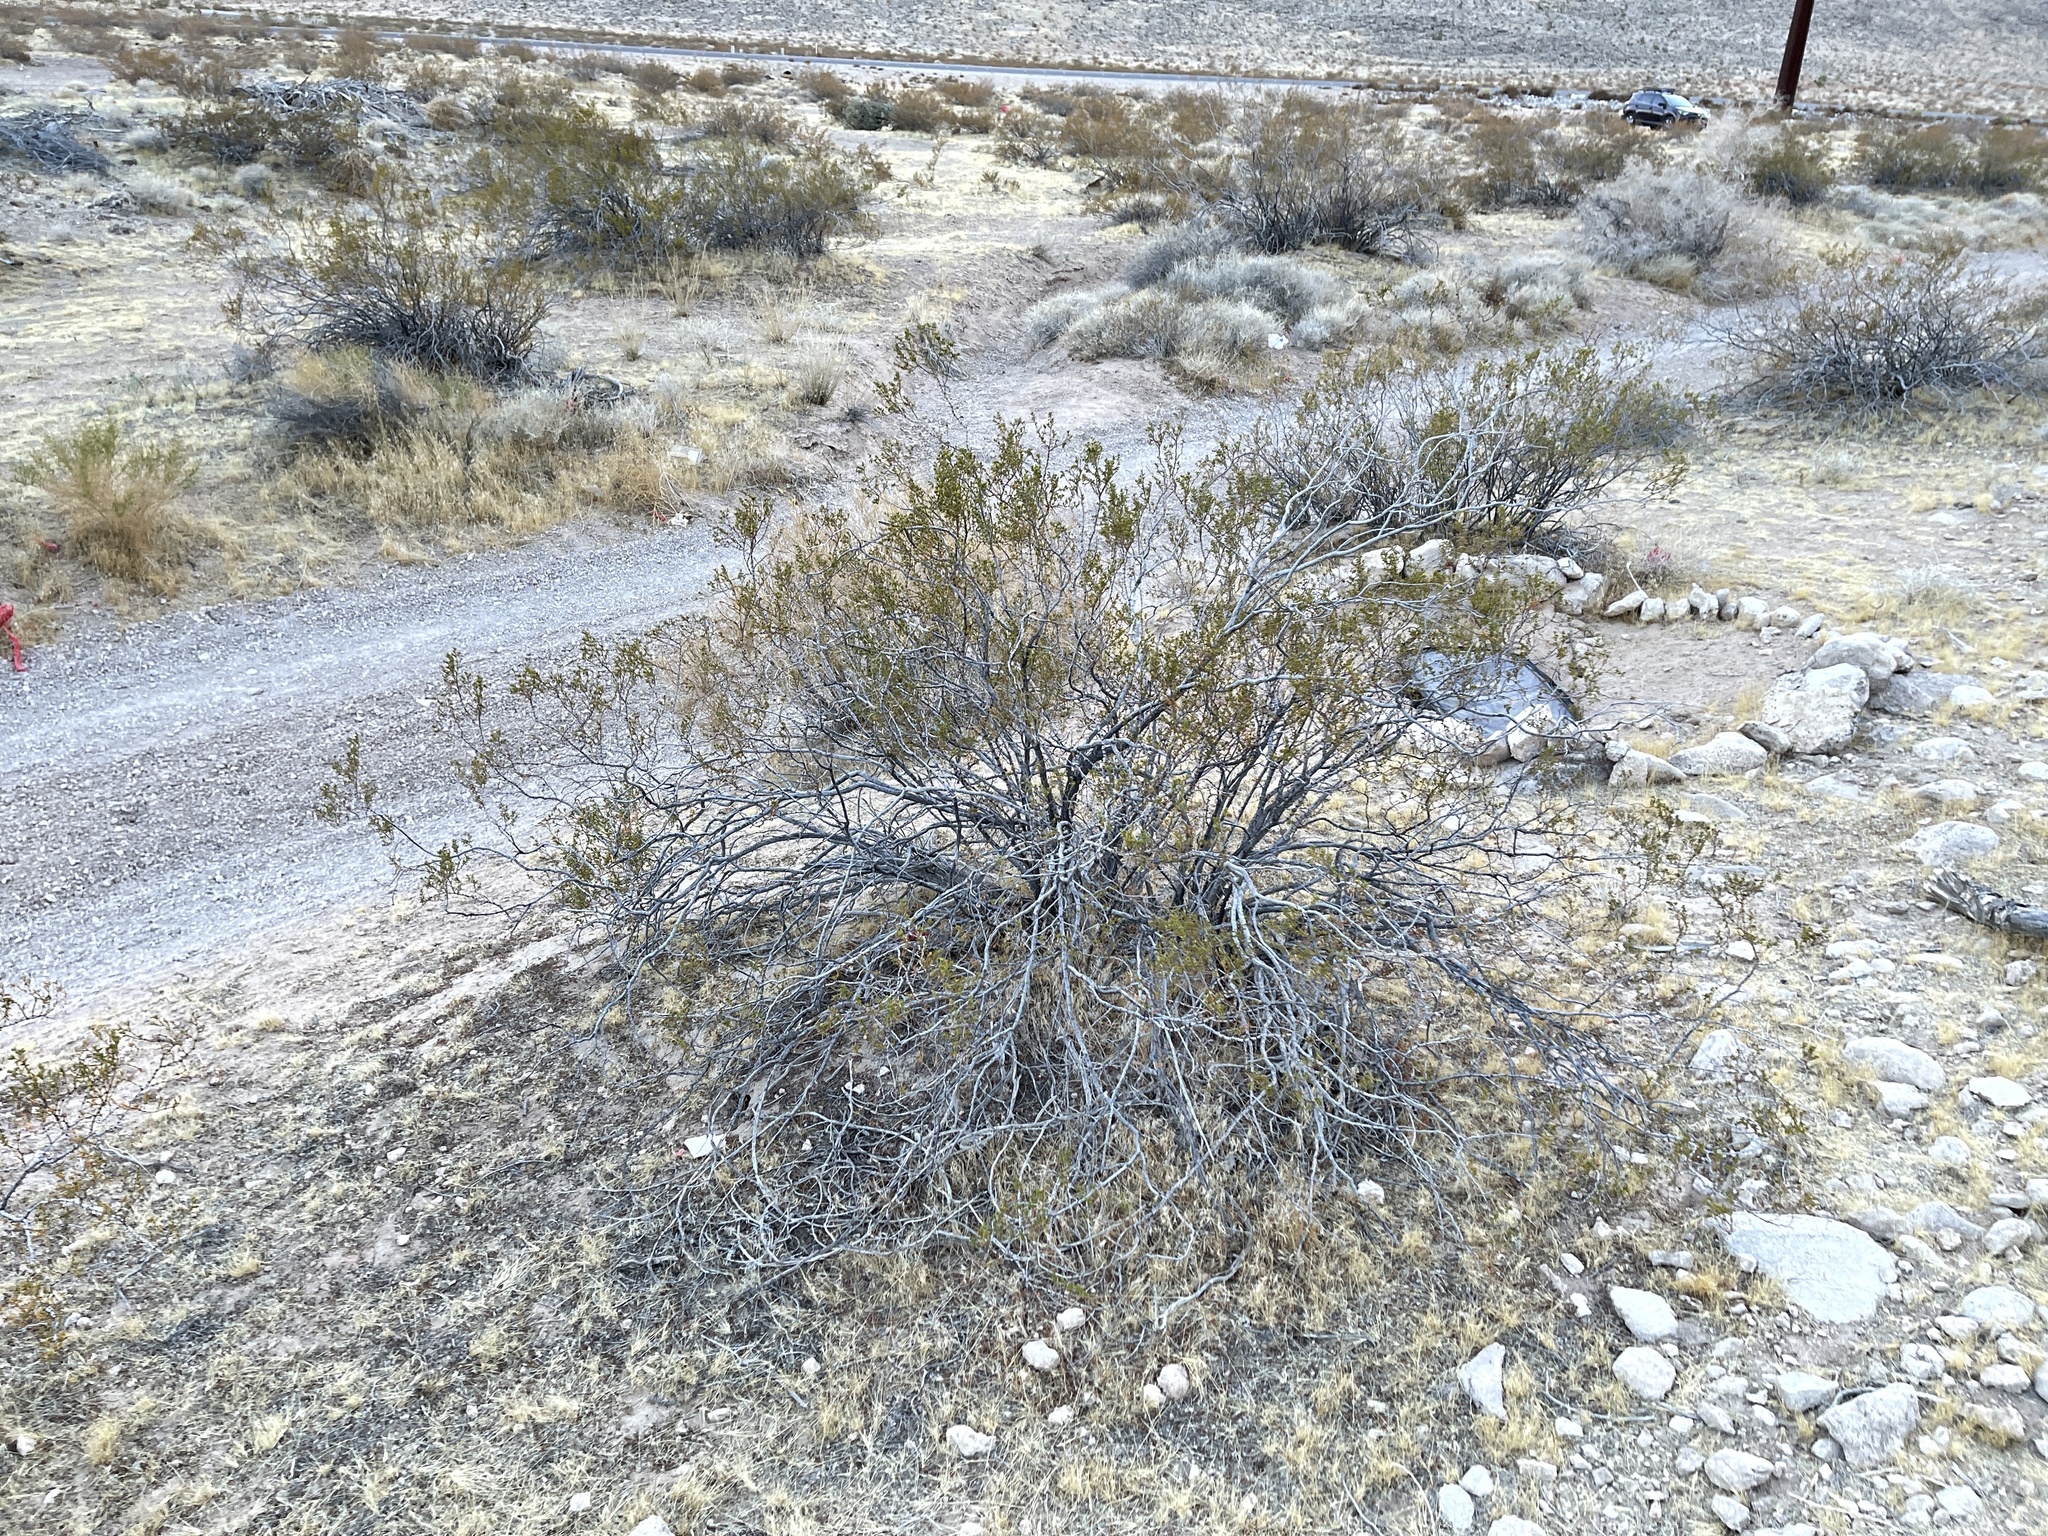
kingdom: Plantae
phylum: Tracheophyta
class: Magnoliopsida
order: Zygophyllales
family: Zygophyllaceae
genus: Larrea
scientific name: Larrea tridentata
